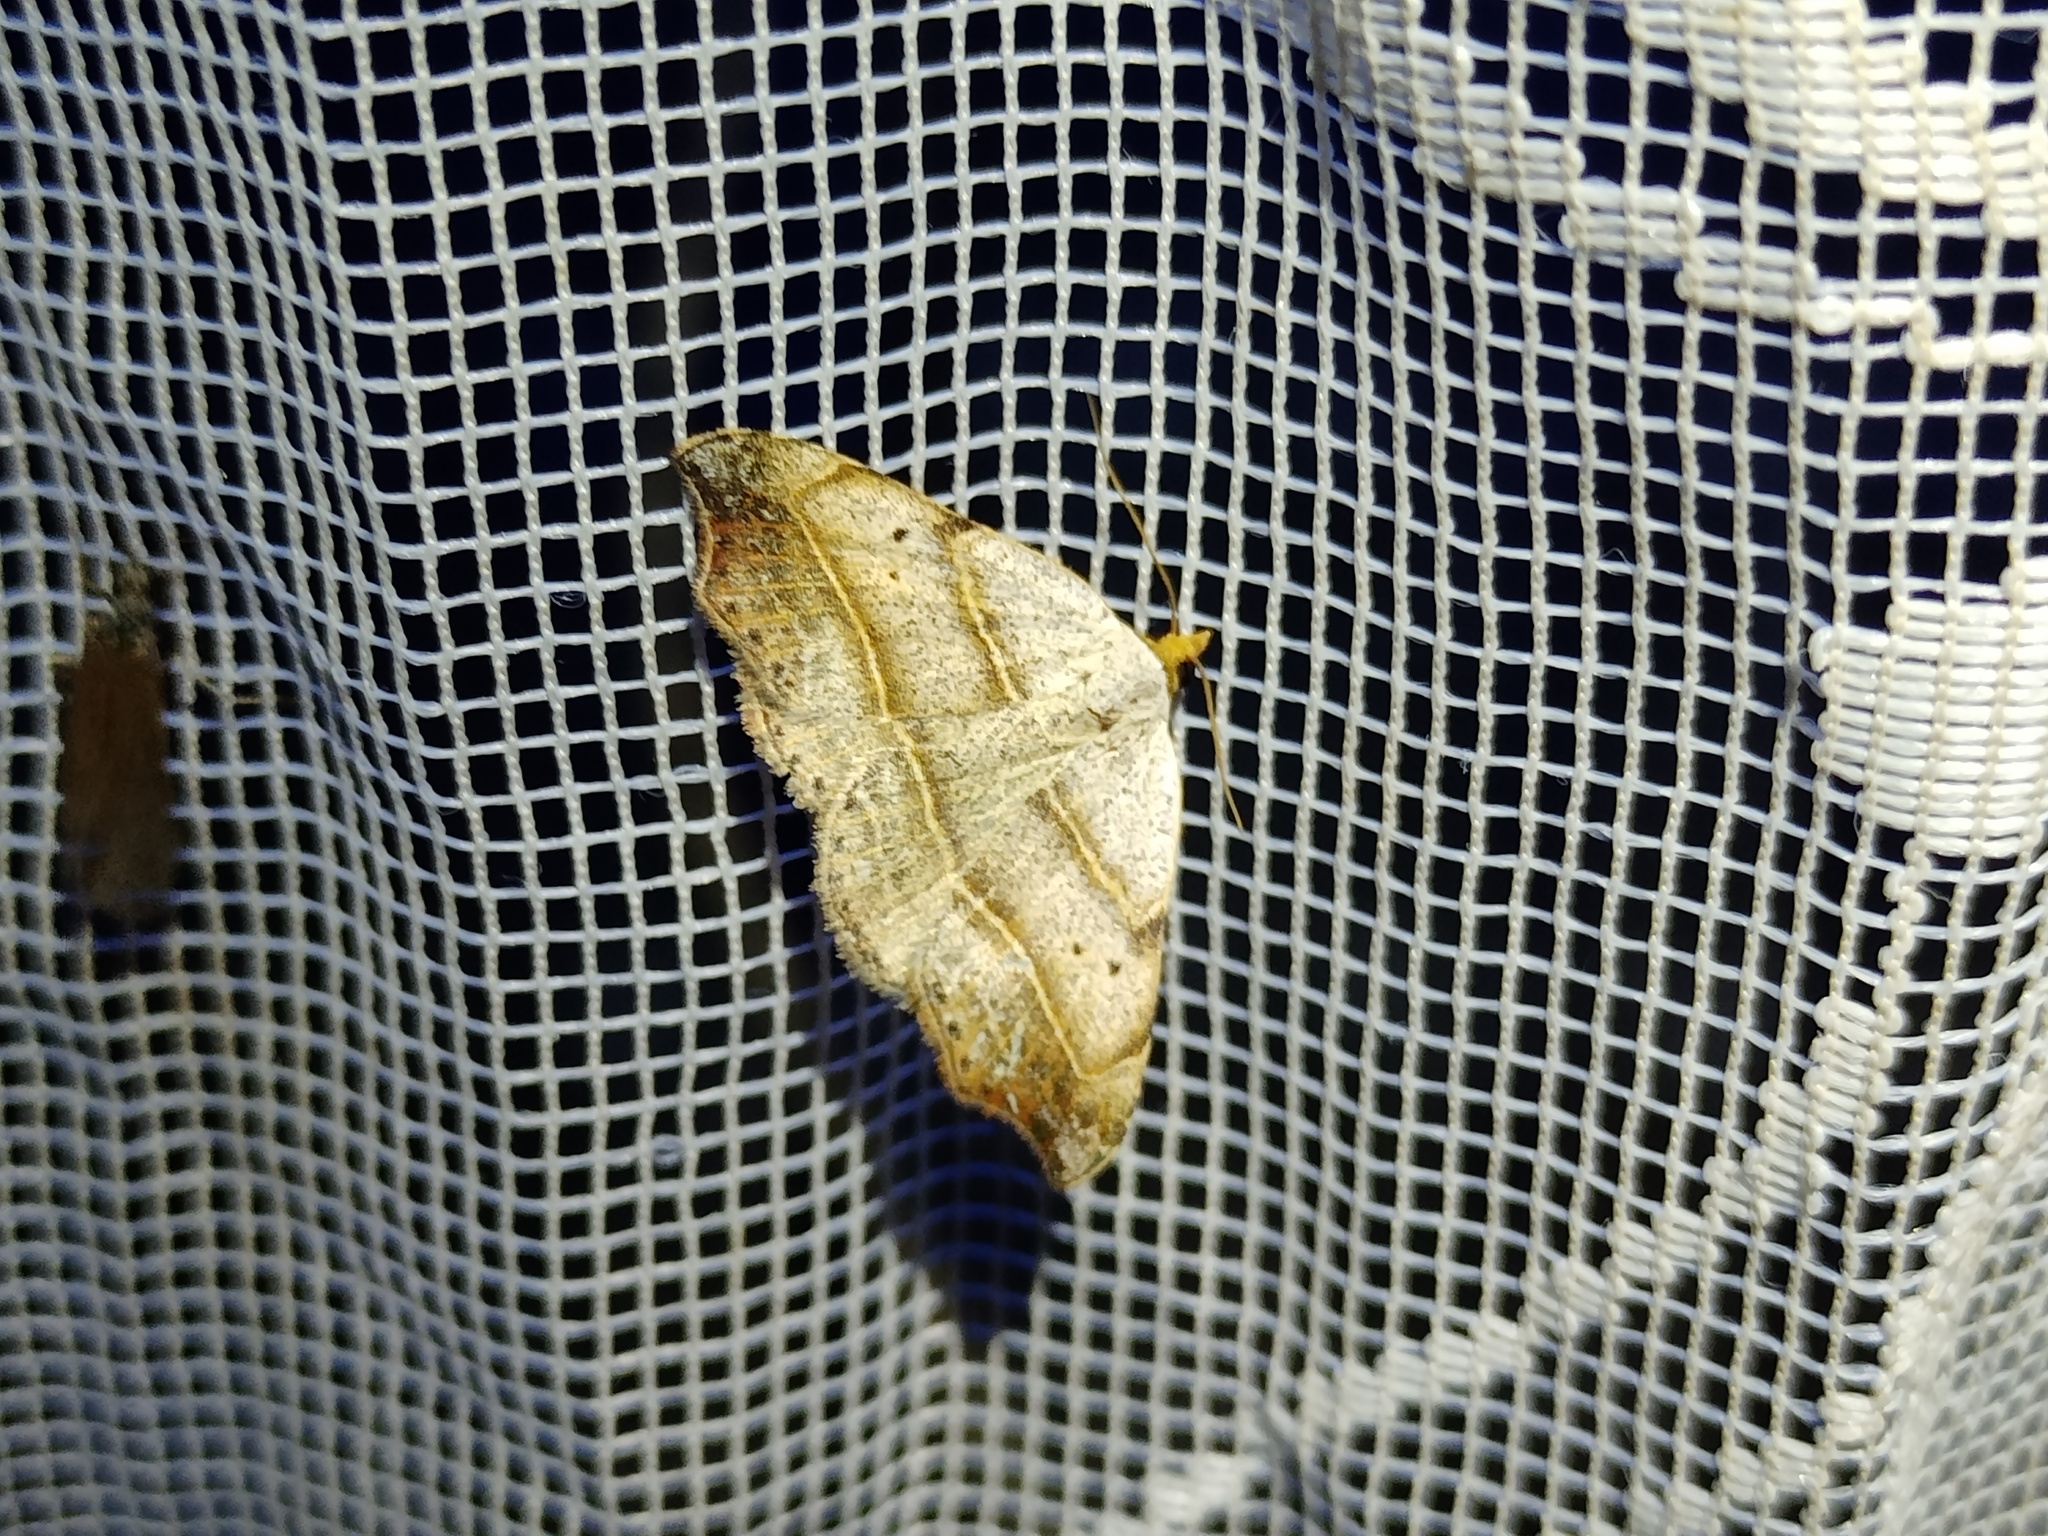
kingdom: Animalia
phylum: Arthropoda
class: Insecta
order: Lepidoptera
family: Erebidae
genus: Laspeyria
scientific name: Laspeyria flexula
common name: Beautiful hook-tip
